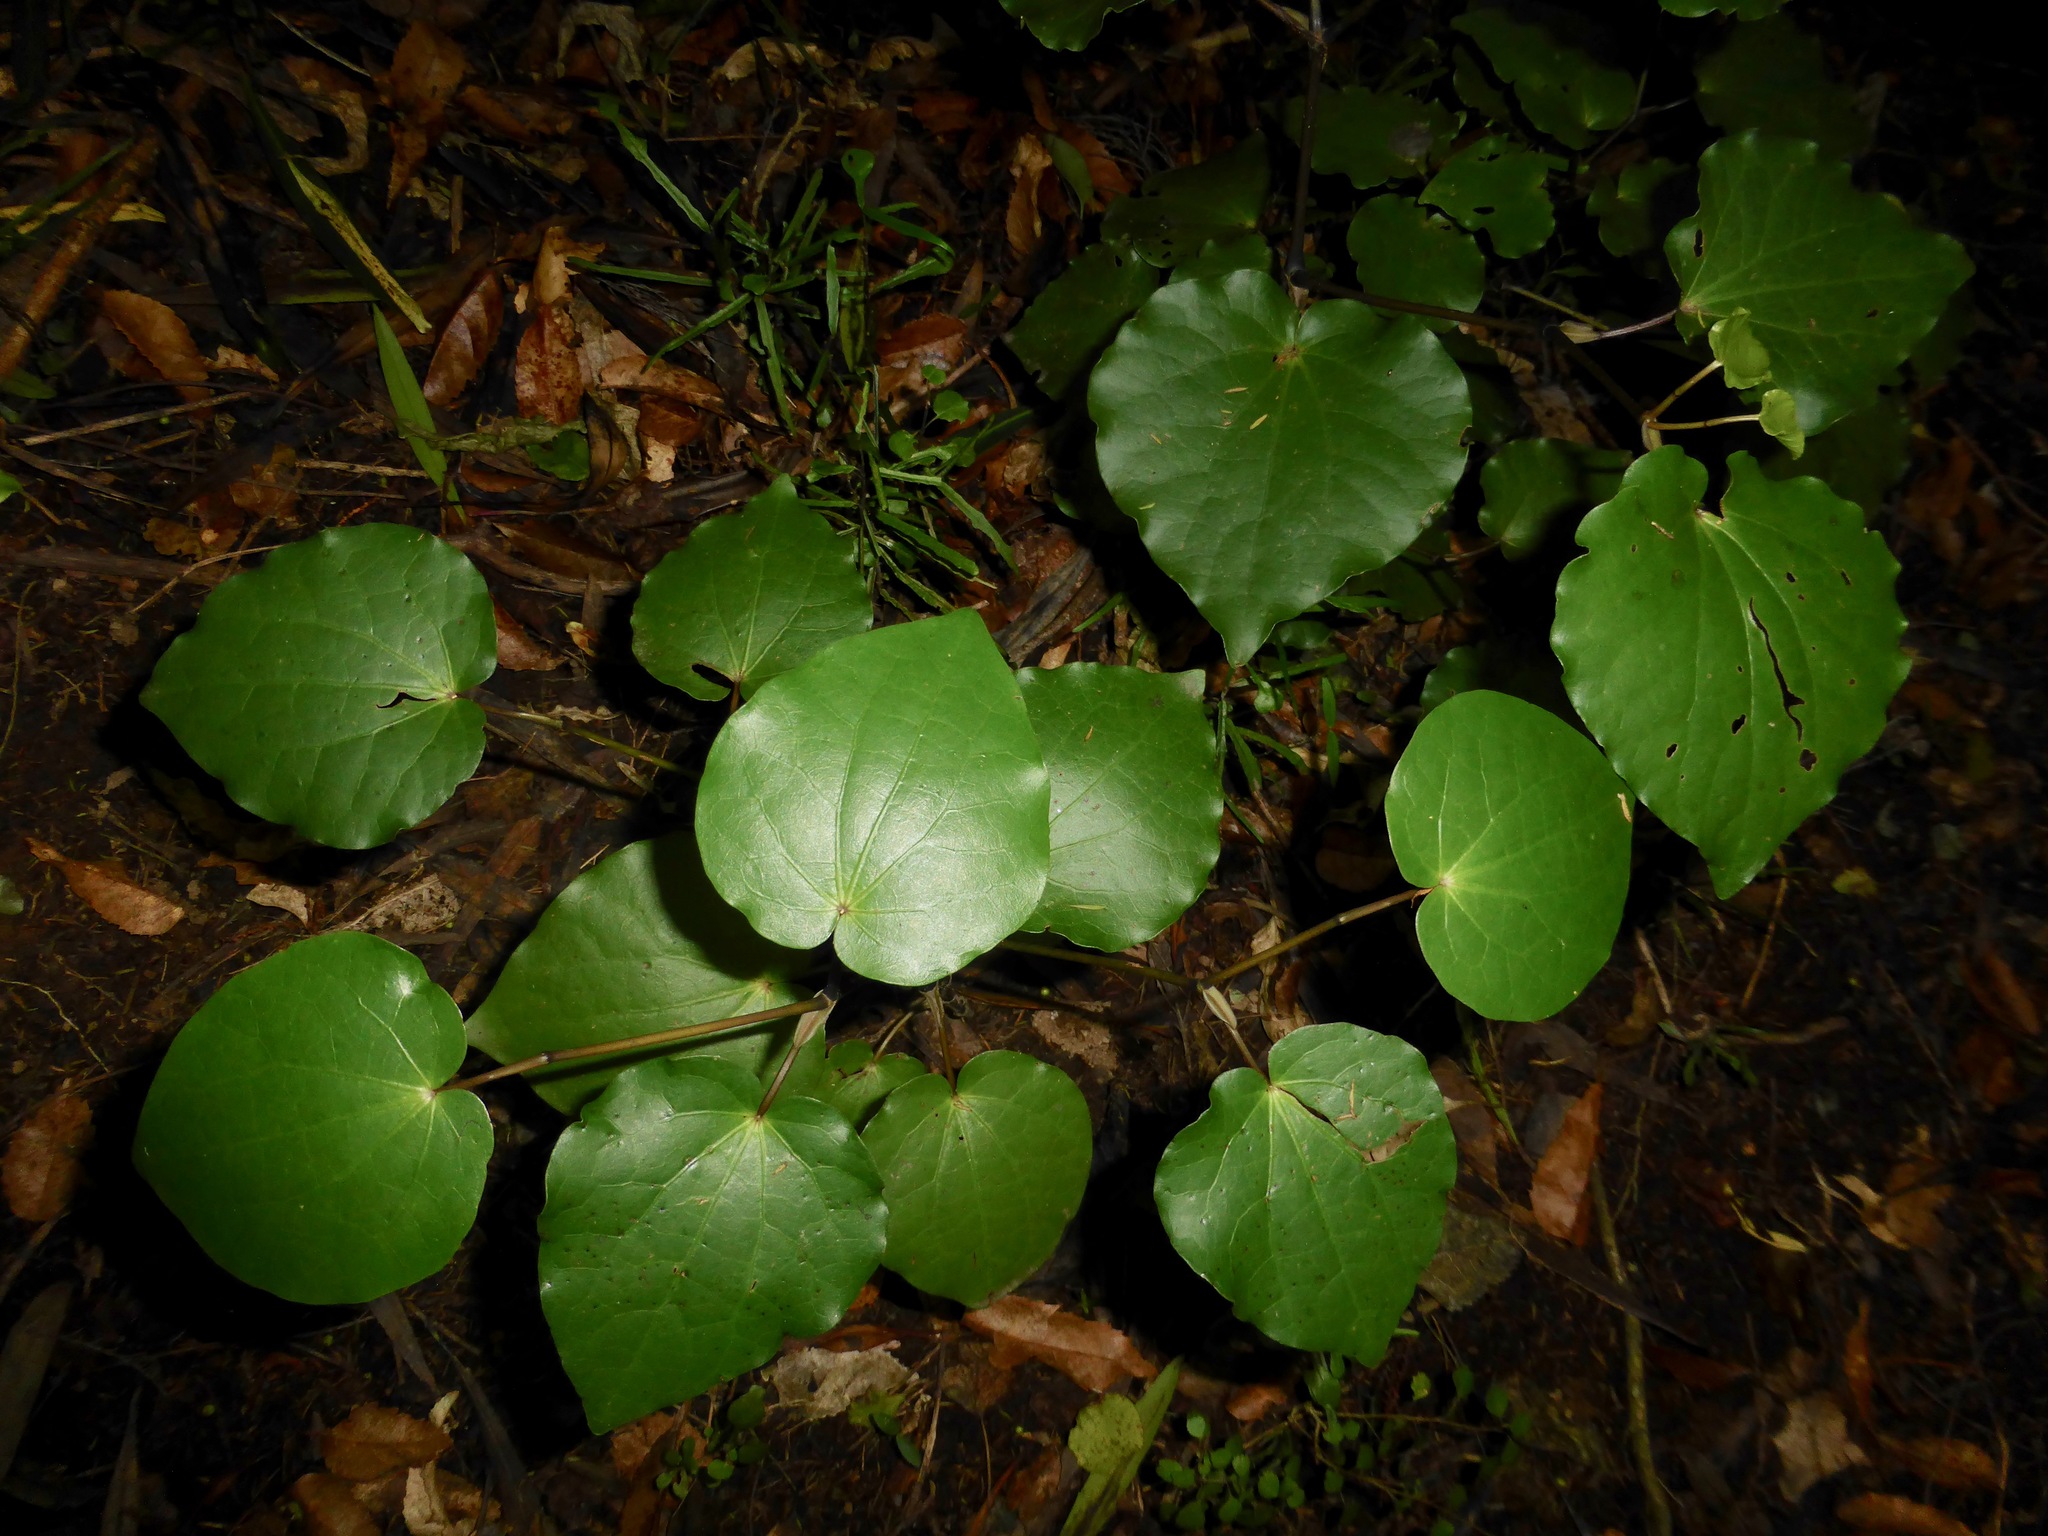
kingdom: Plantae
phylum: Tracheophyta
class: Magnoliopsida
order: Piperales
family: Piperaceae
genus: Macropiper
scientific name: Macropiper excelsum
